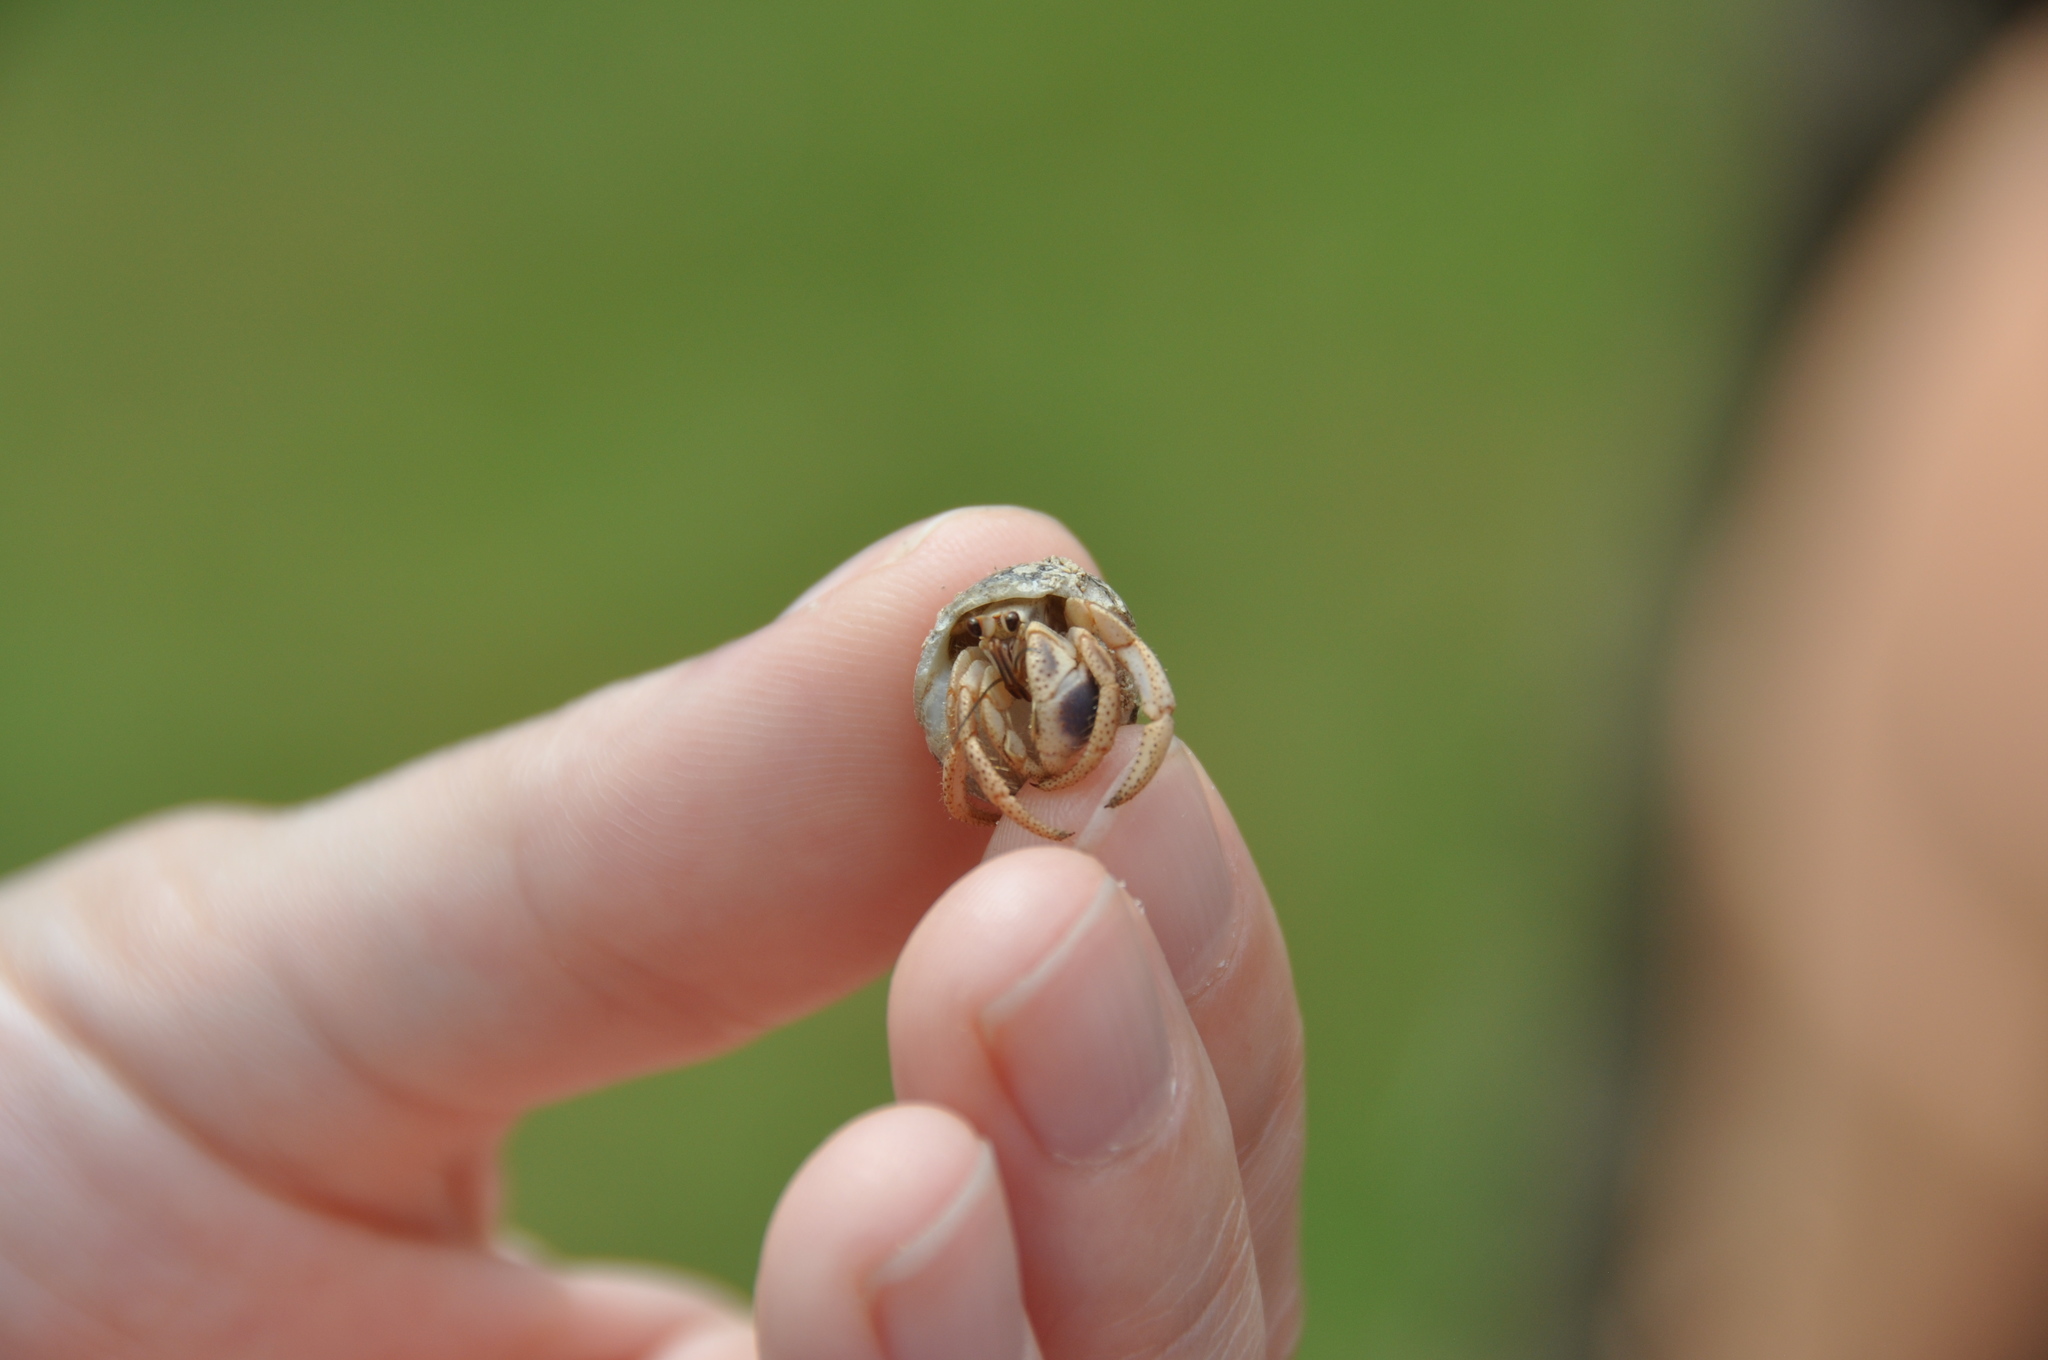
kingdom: Animalia
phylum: Arthropoda
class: Malacostraca
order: Decapoda
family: Coenobitidae
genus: Coenobita
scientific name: Coenobita clypeatus
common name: Caribbean hermit crab
